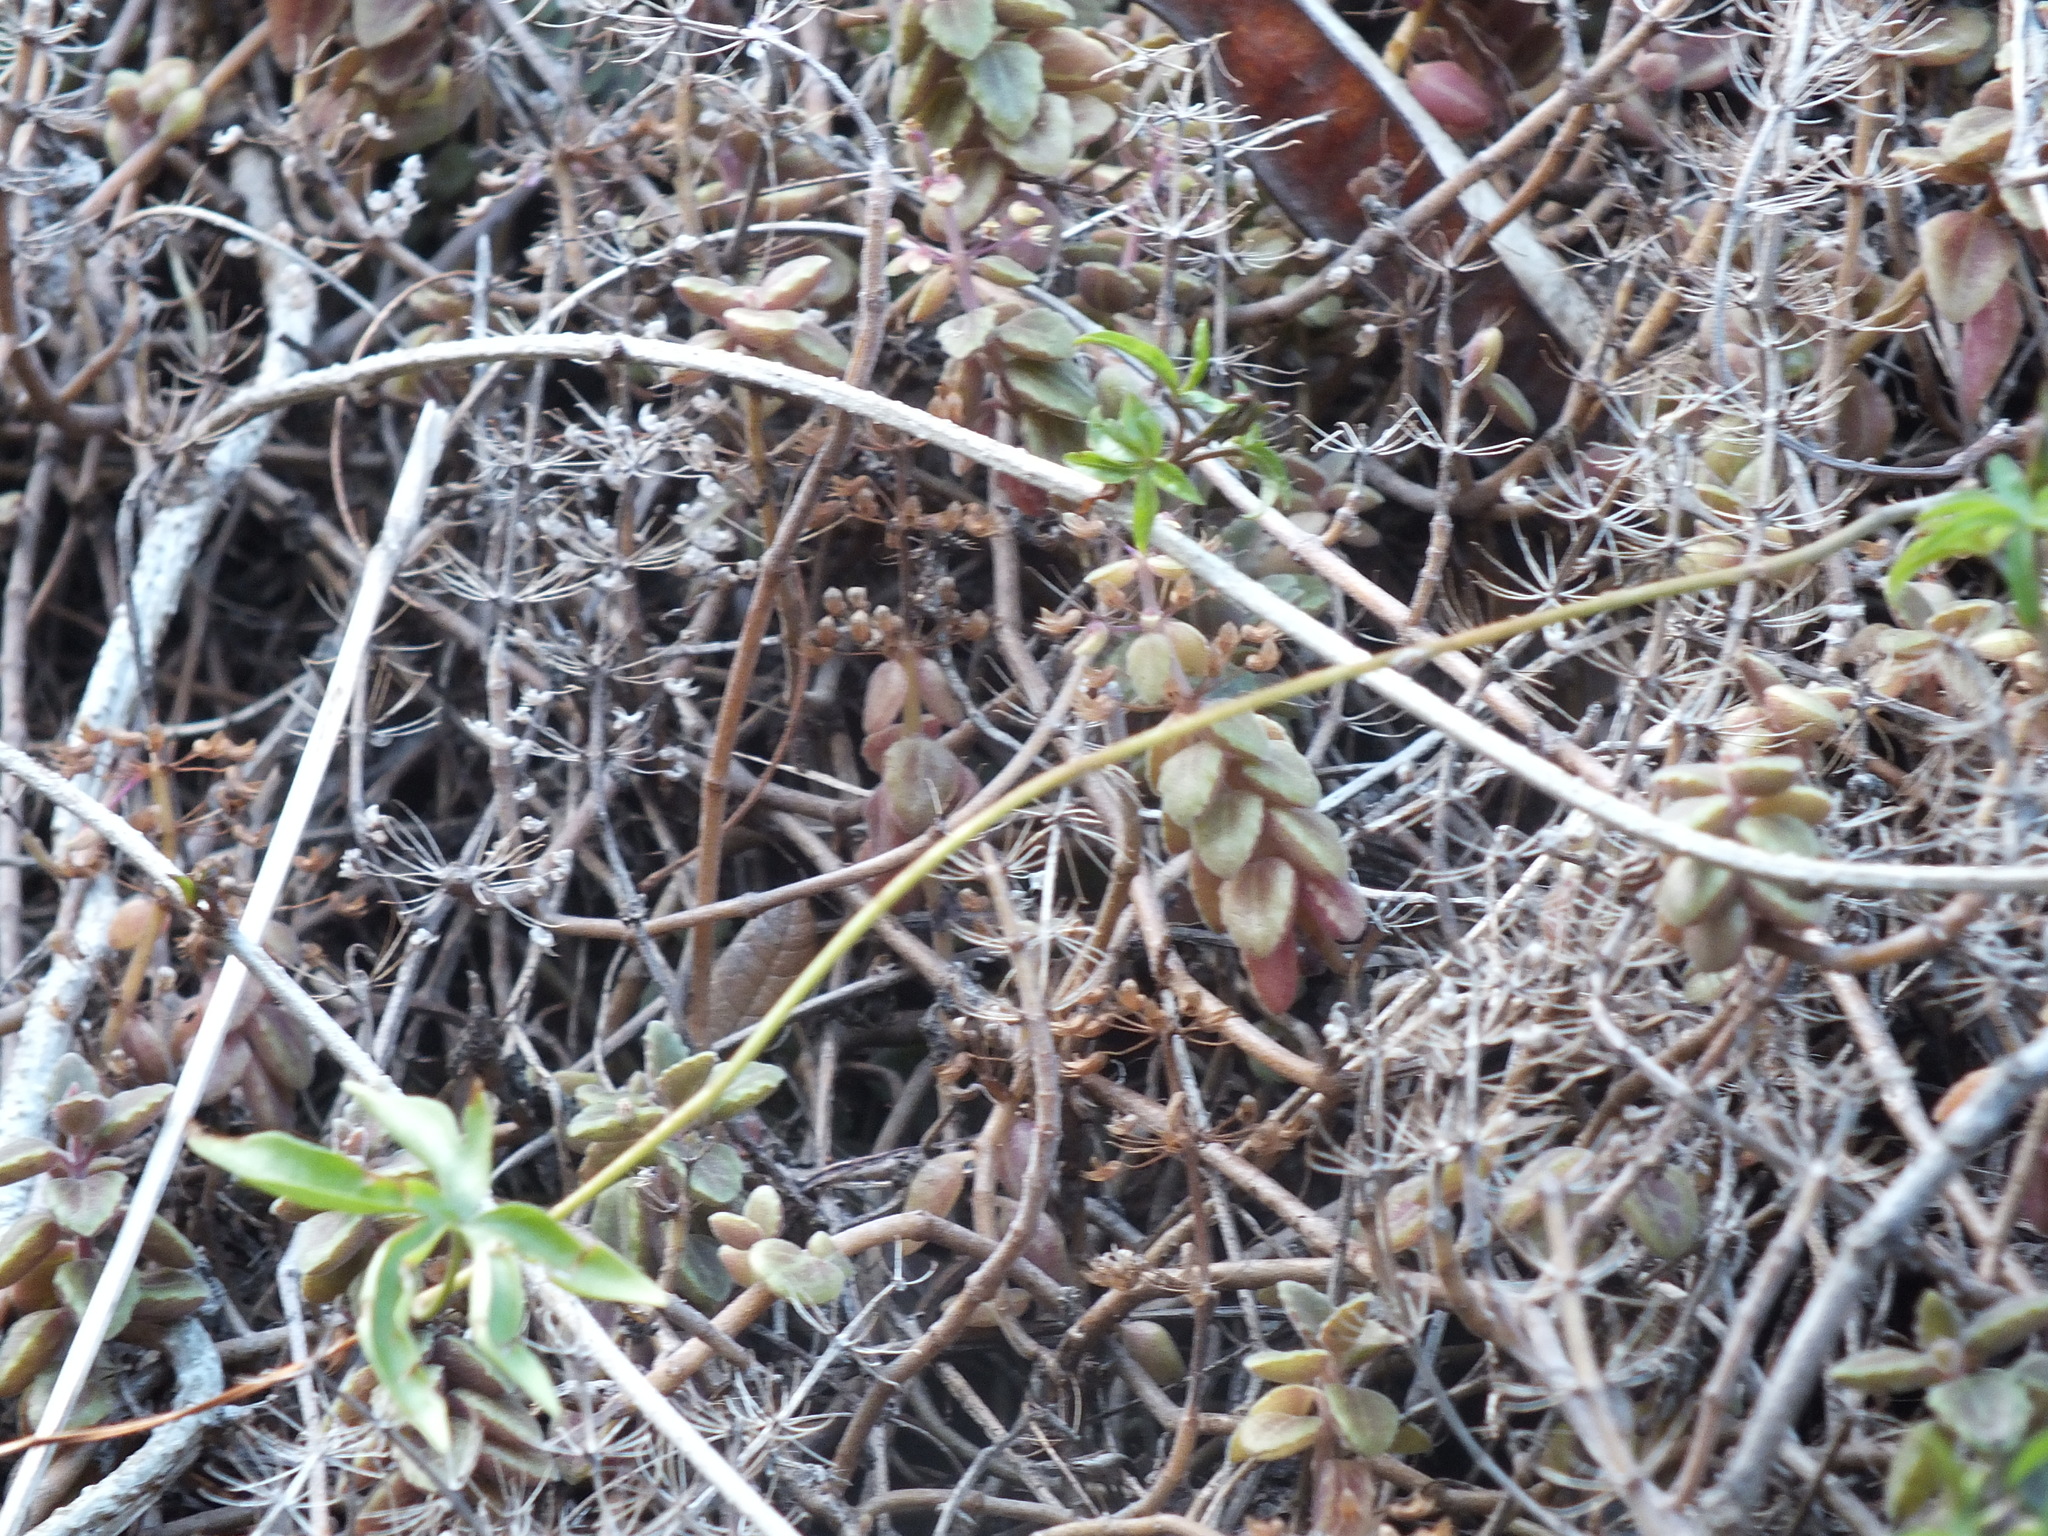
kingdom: Plantae
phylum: Tracheophyta
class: Magnoliopsida
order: Lamiales
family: Lamiaceae
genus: Coleus
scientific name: Coleus prostratus
